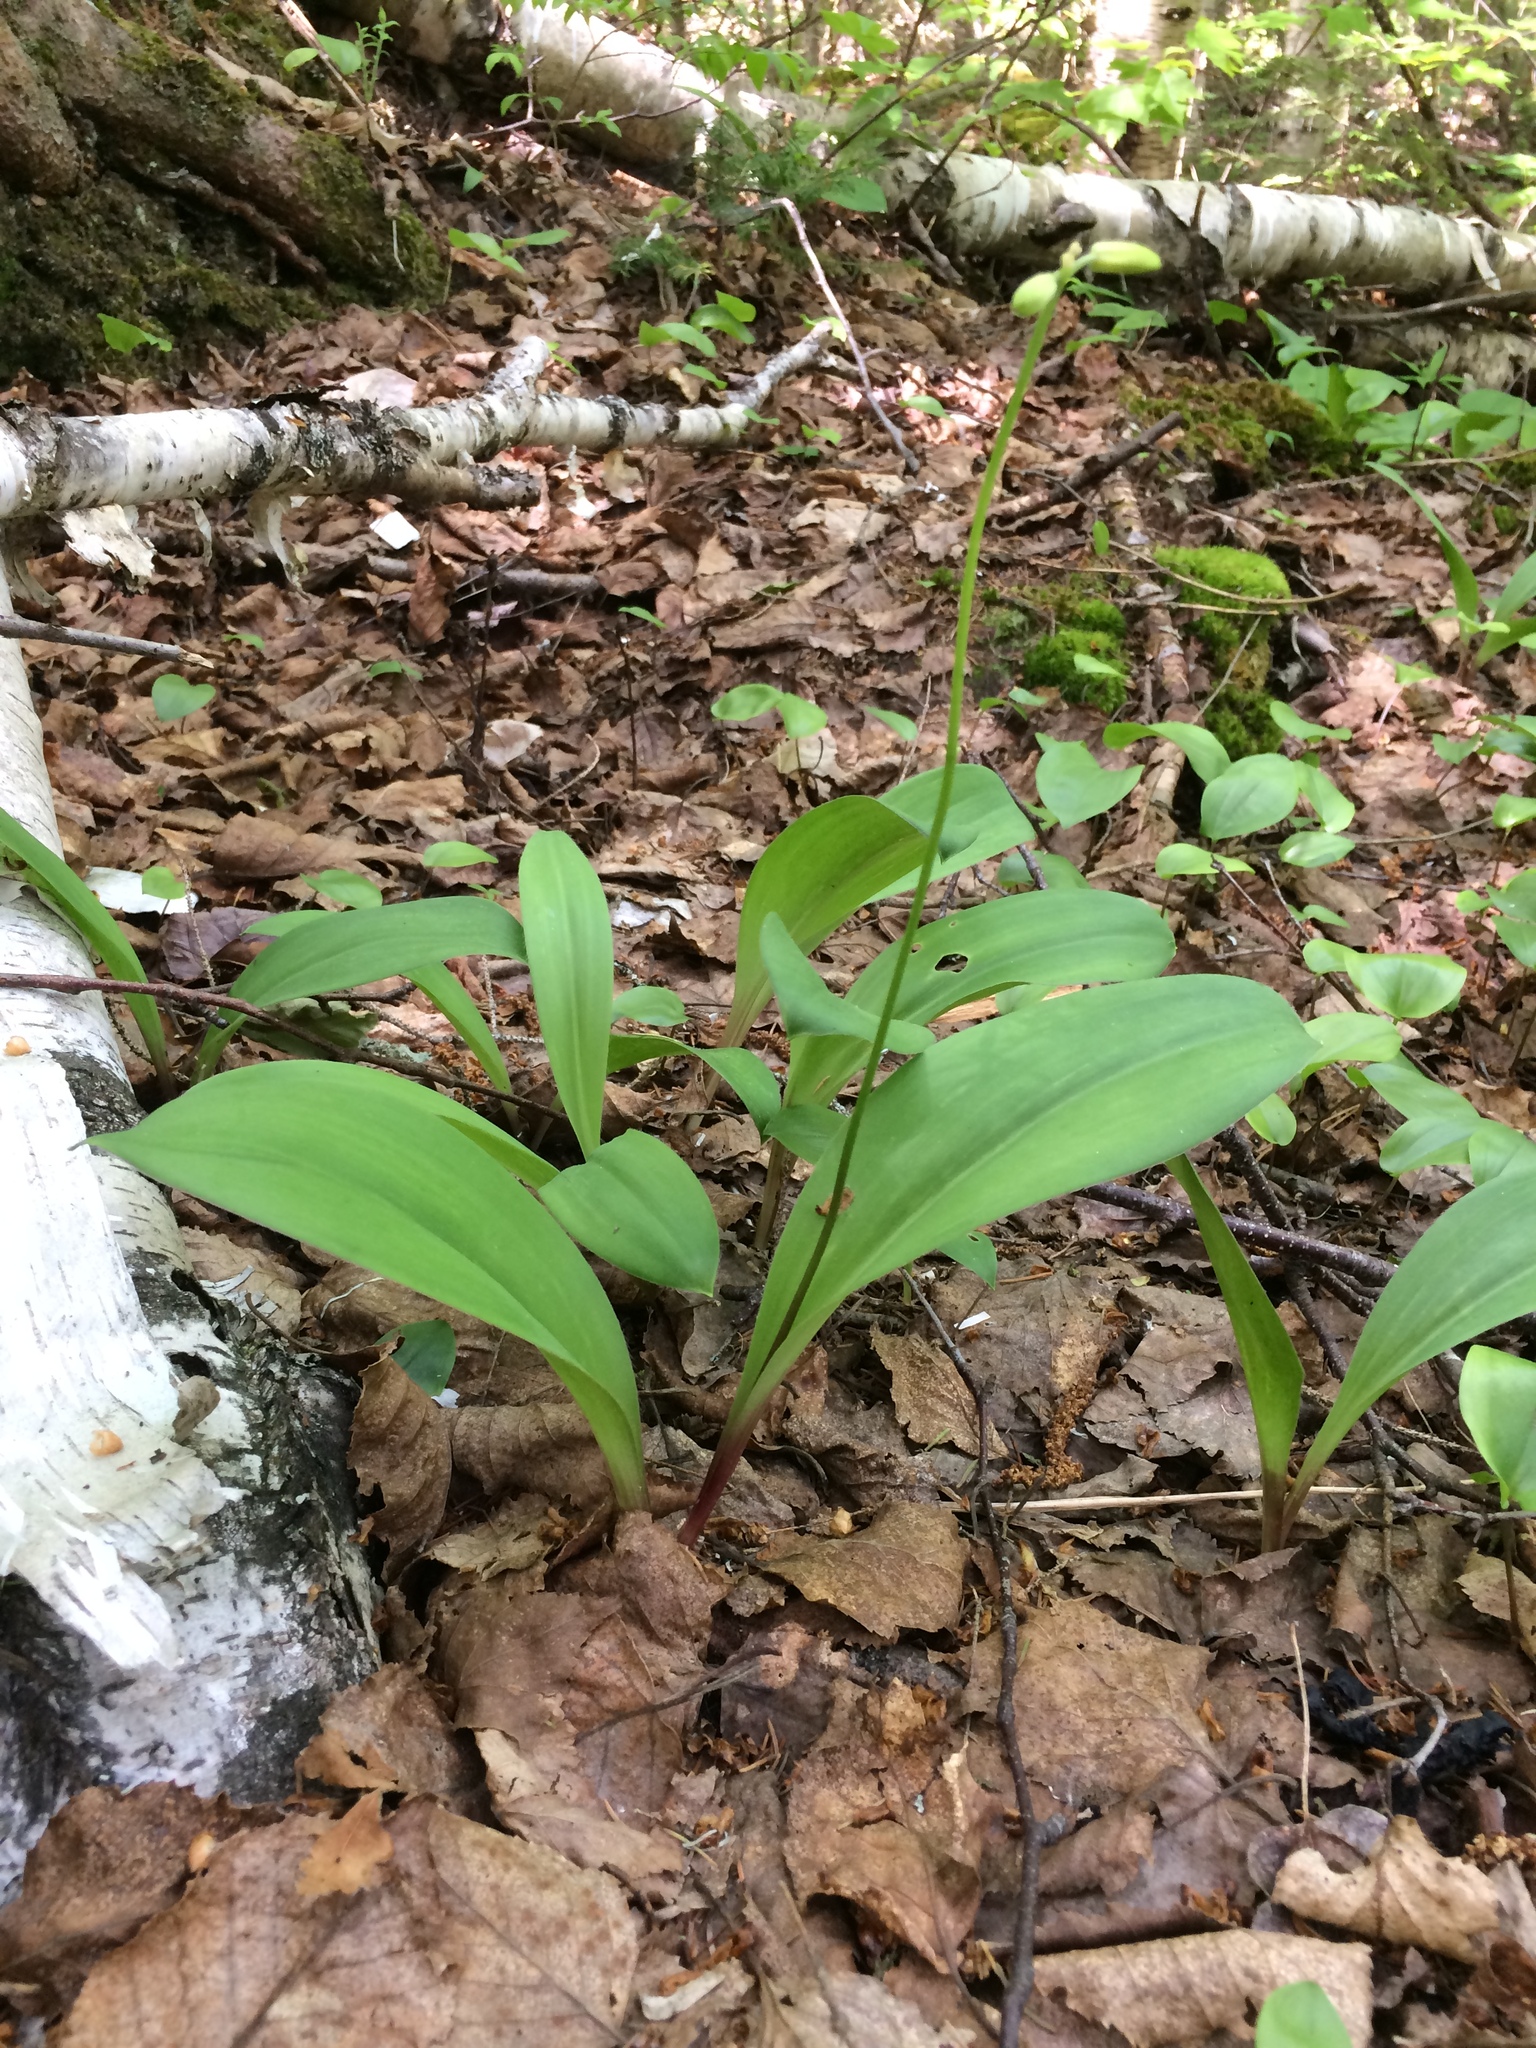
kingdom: Plantae
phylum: Tracheophyta
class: Liliopsida
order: Liliales
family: Liliaceae
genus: Clintonia
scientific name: Clintonia borealis
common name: Yellow clintonia
